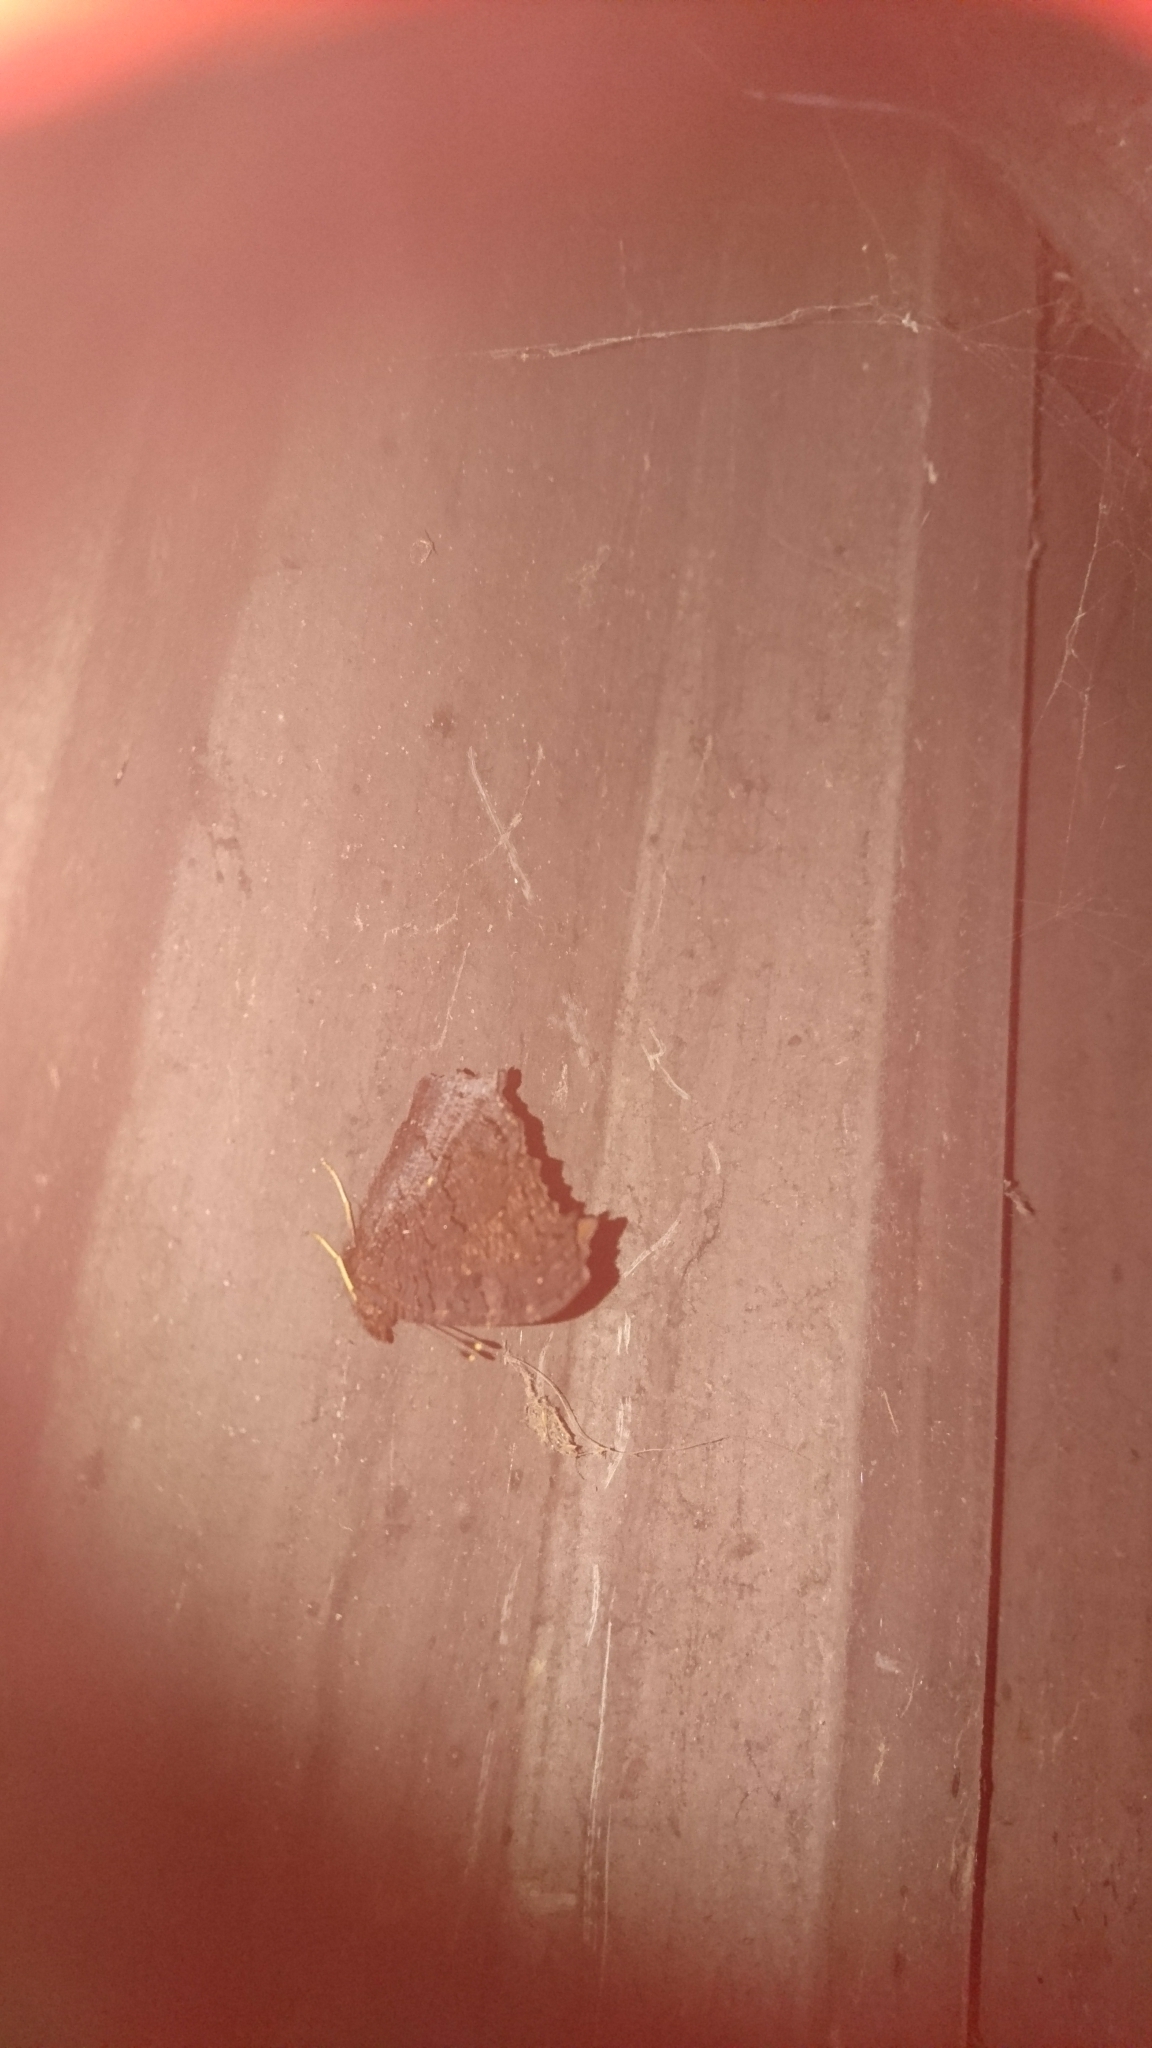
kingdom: Animalia
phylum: Arthropoda
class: Insecta
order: Lepidoptera
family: Nymphalidae
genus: Aglais
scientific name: Aglais io
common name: Peacock
